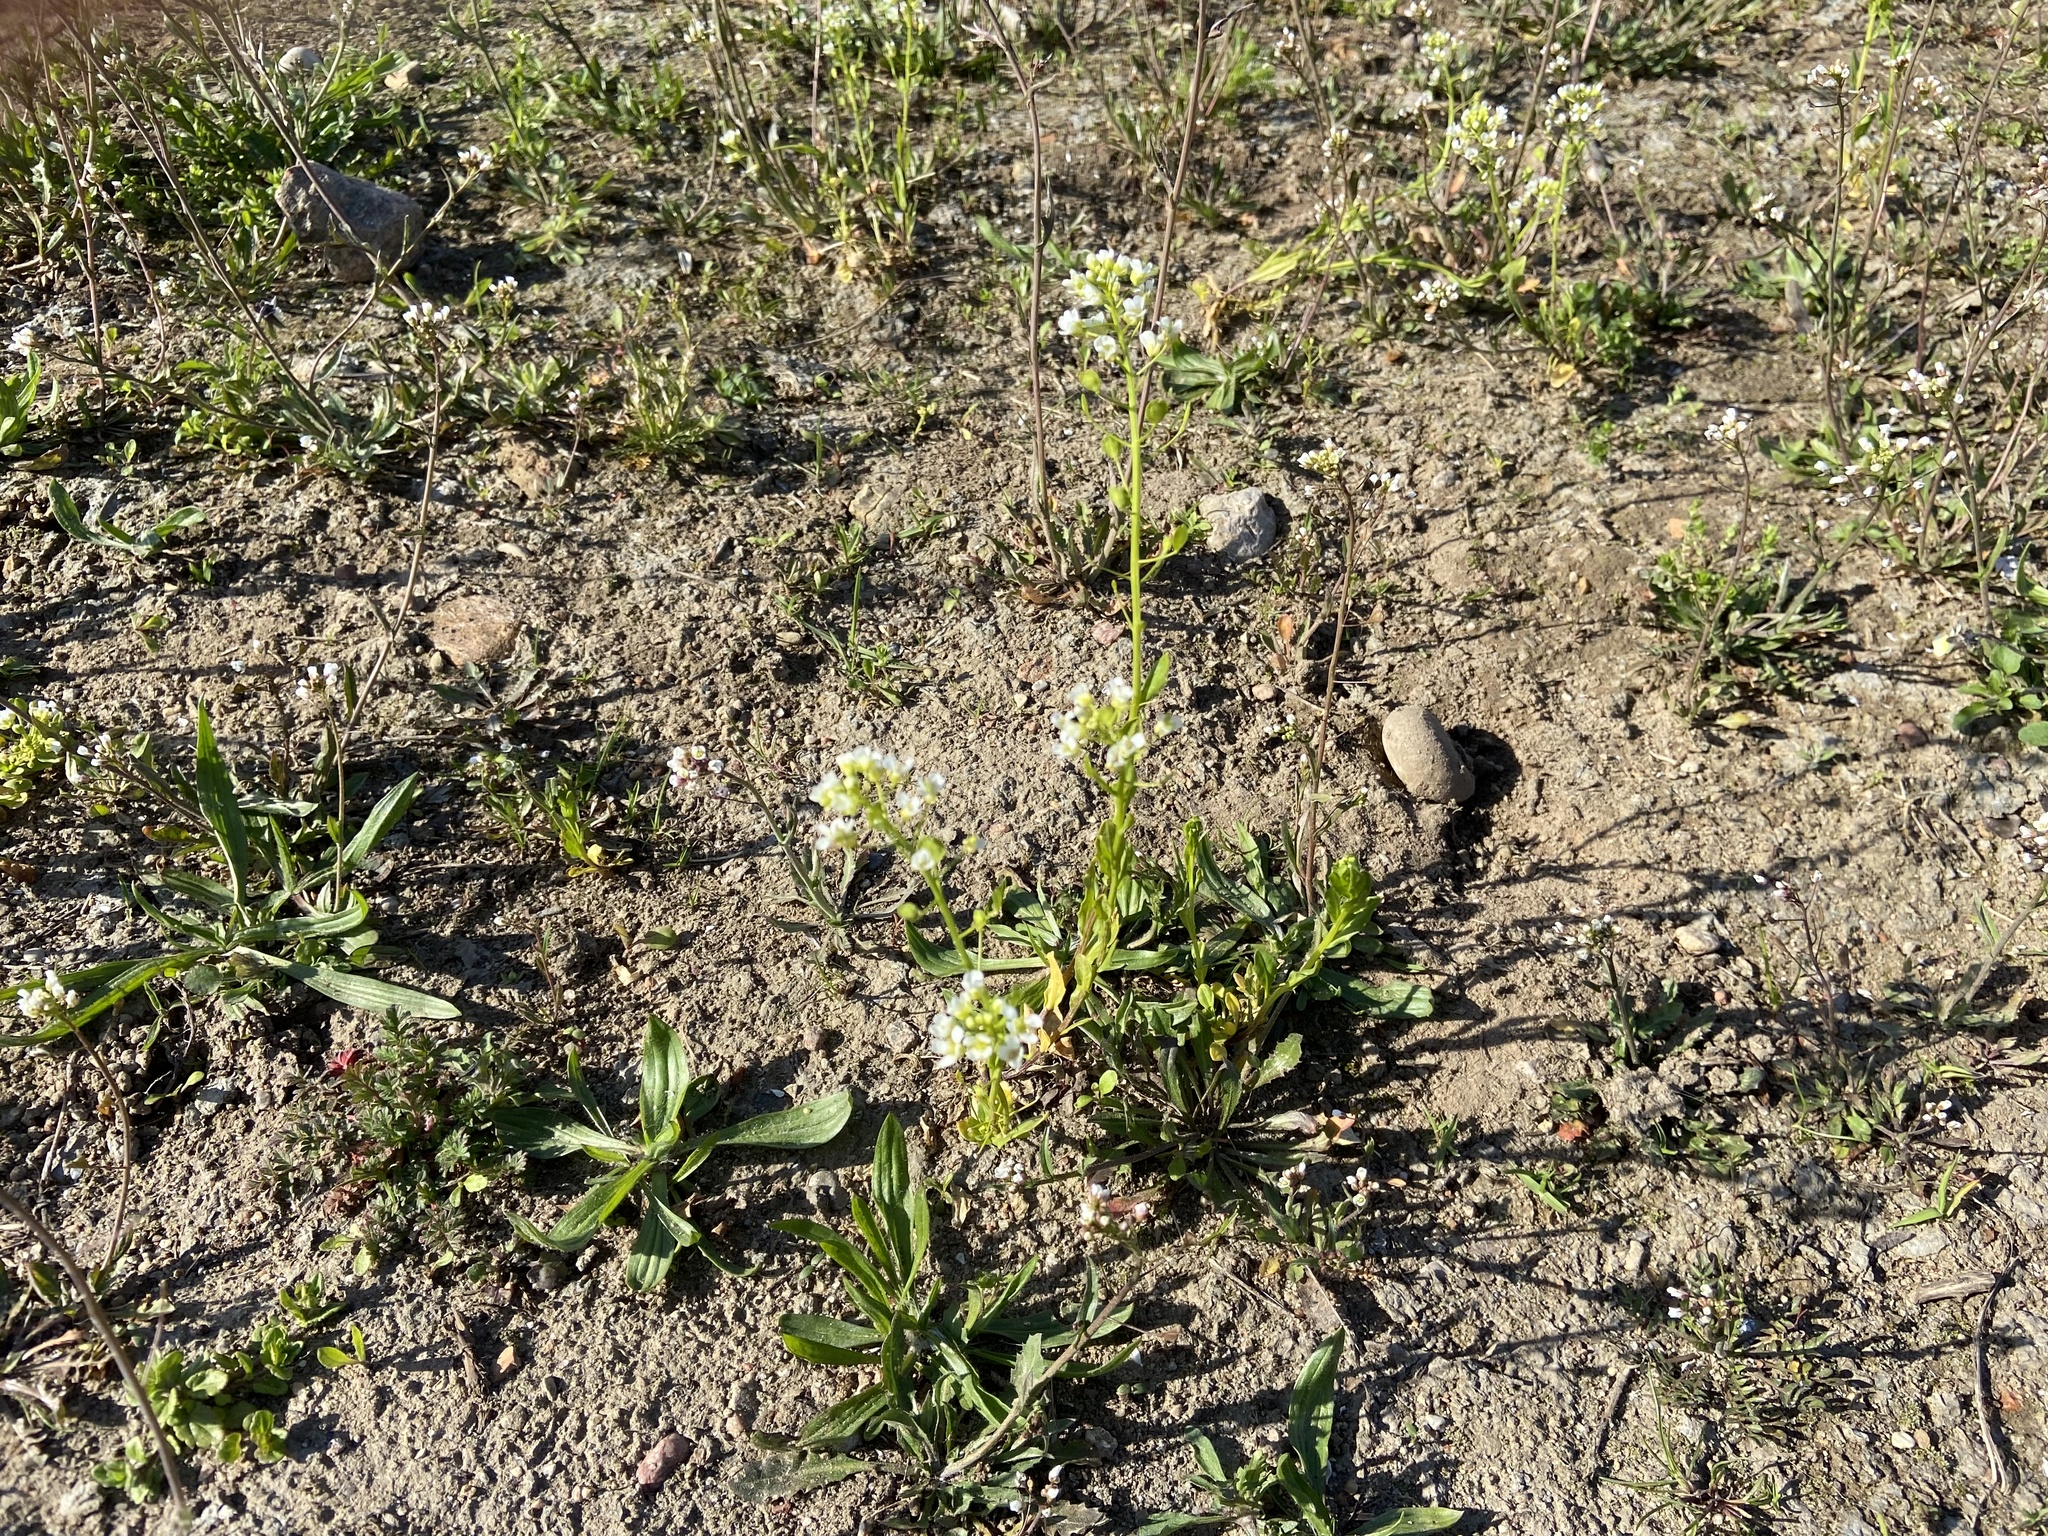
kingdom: Plantae
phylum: Tracheophyta
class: Magnoliopsida
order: Brassicales
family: Brassicaceae
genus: Thlaspi
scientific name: Thlaspi arvense
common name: Field pennycress
